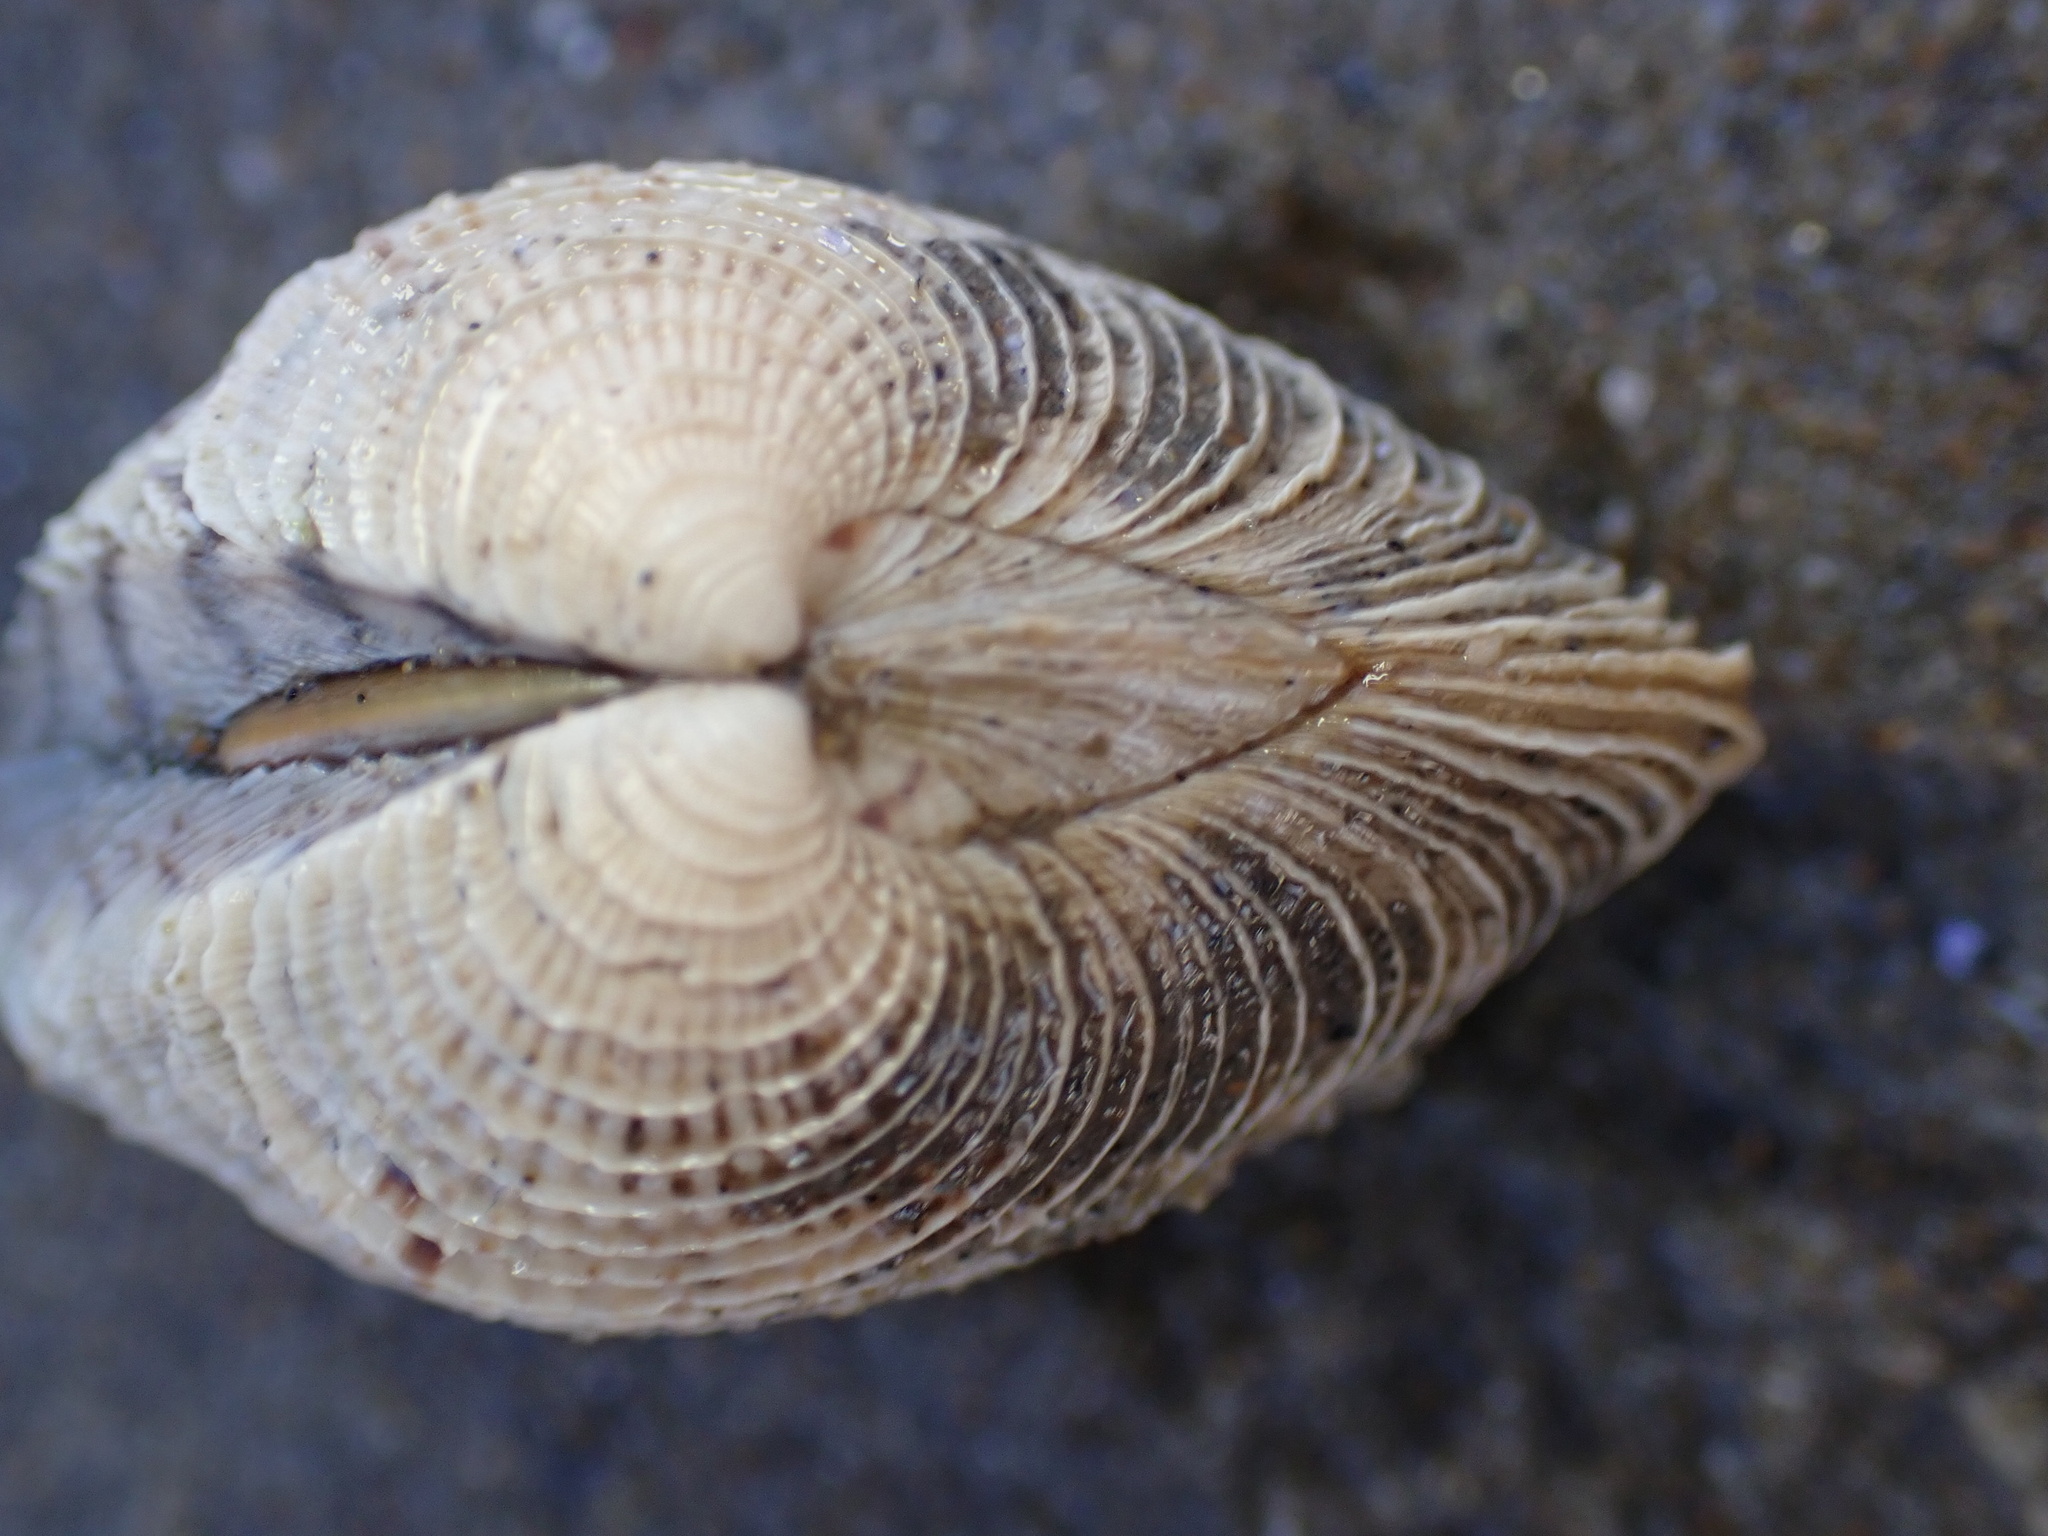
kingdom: Animalia
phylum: Mollusca
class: Bivalvia
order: Venerida
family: Veneridae
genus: Chione
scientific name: Chione undatella
